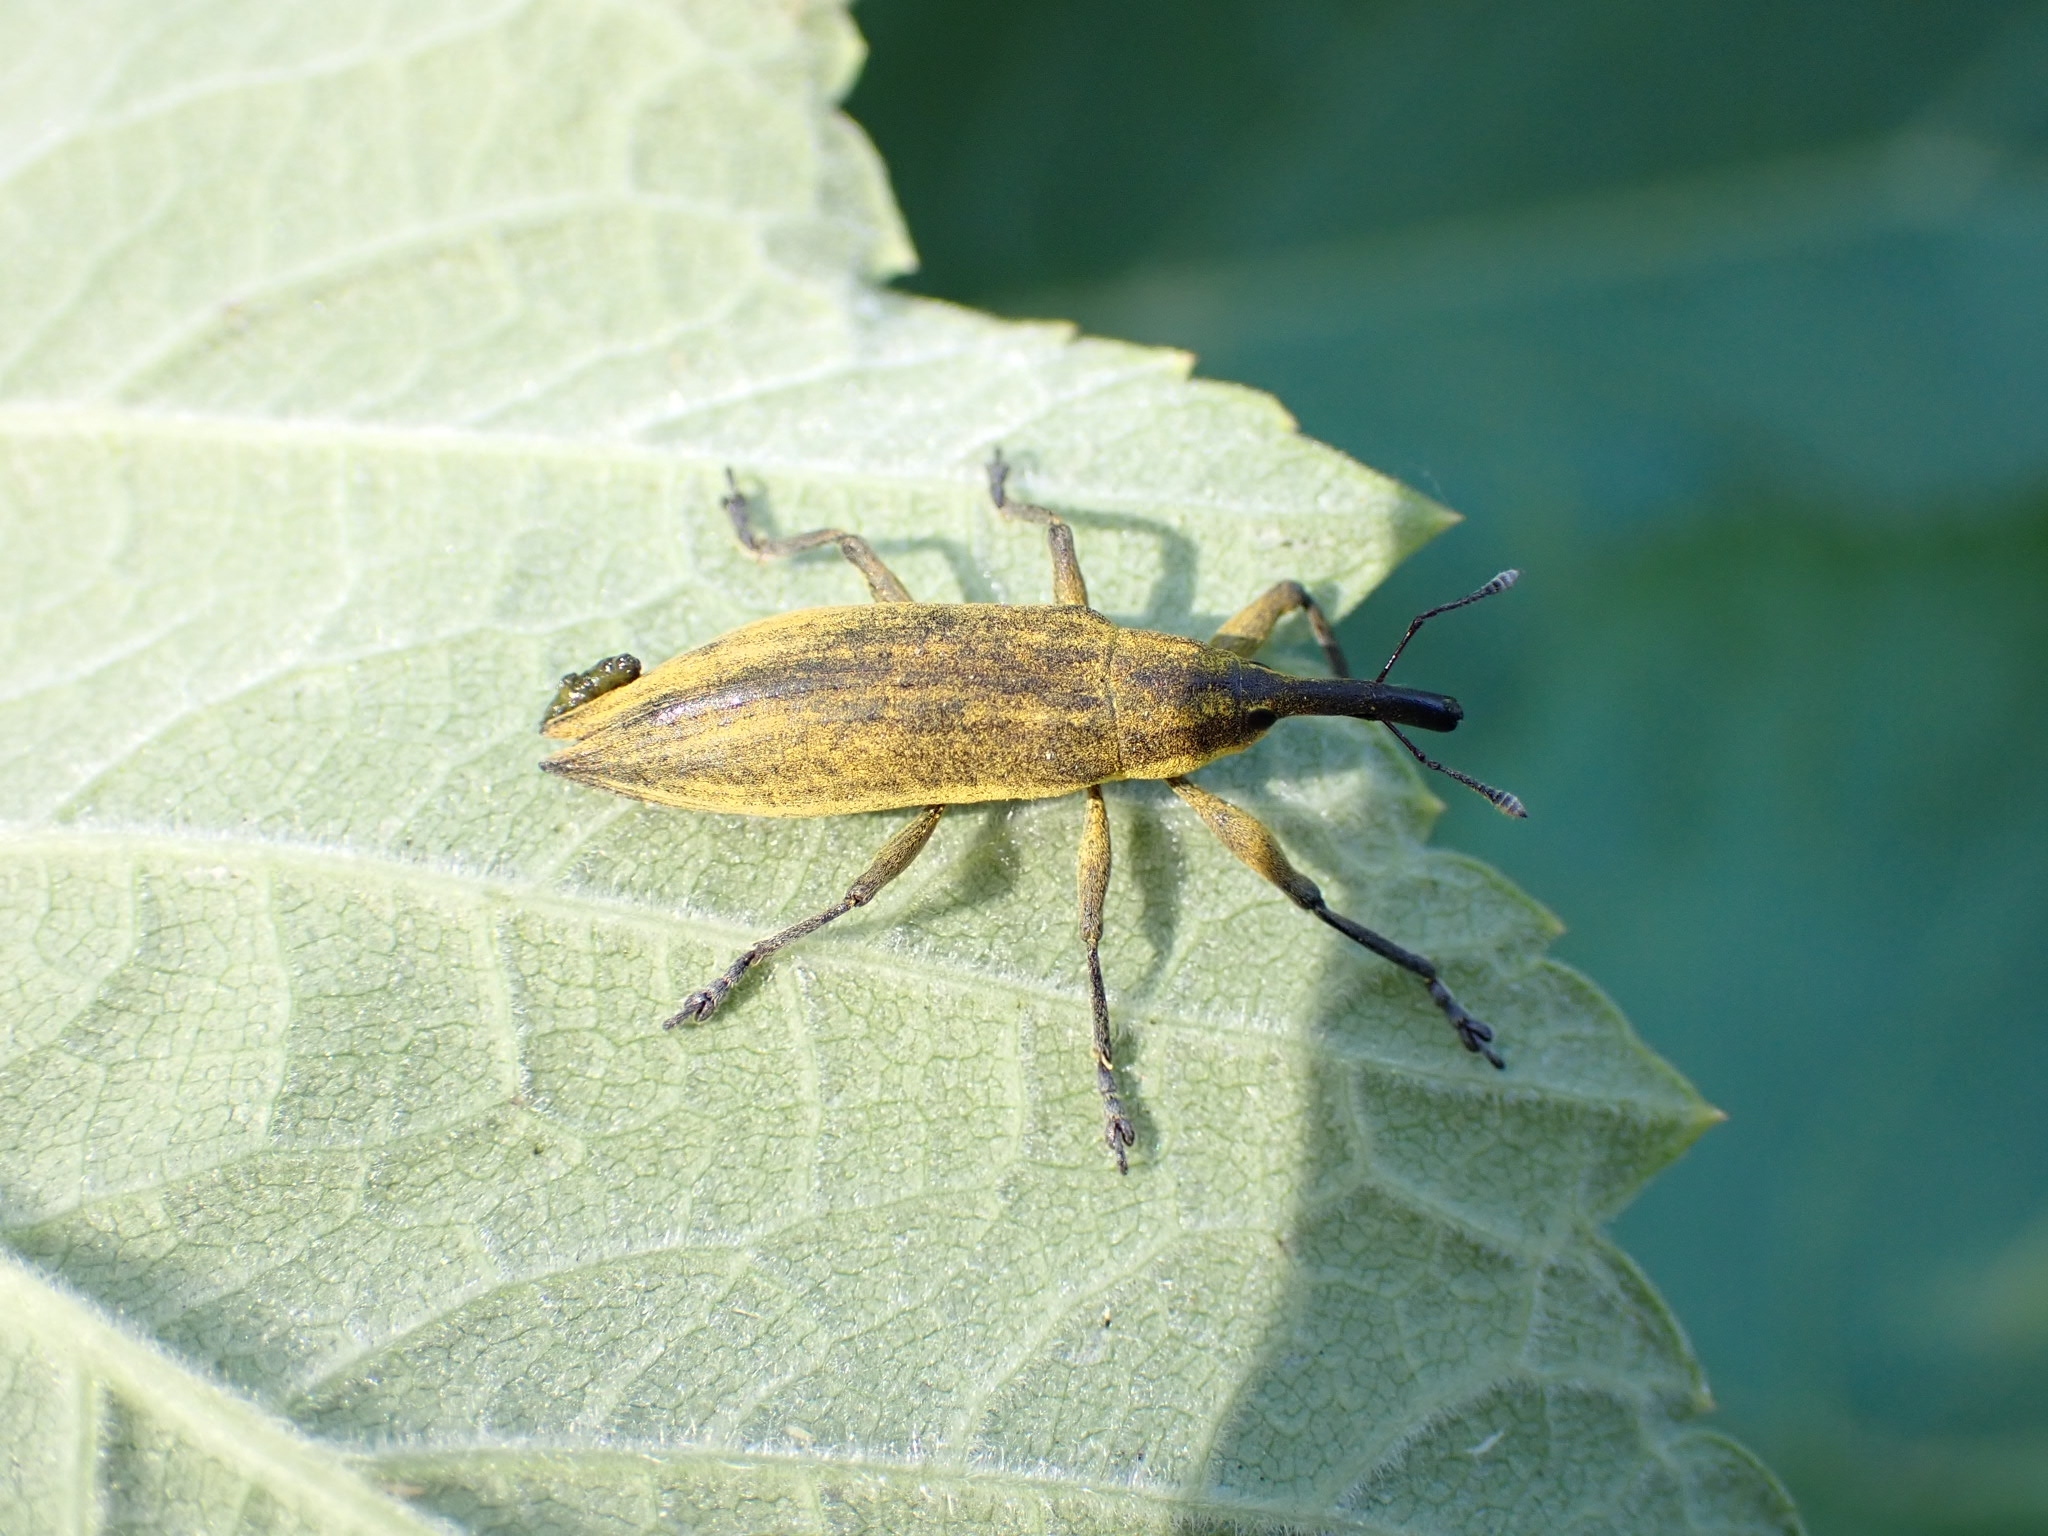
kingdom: Animalia
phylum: Arthropoda
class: Insecta
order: Coleoptera
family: Curculionidae
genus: Lixus
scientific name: Lixus iridis
